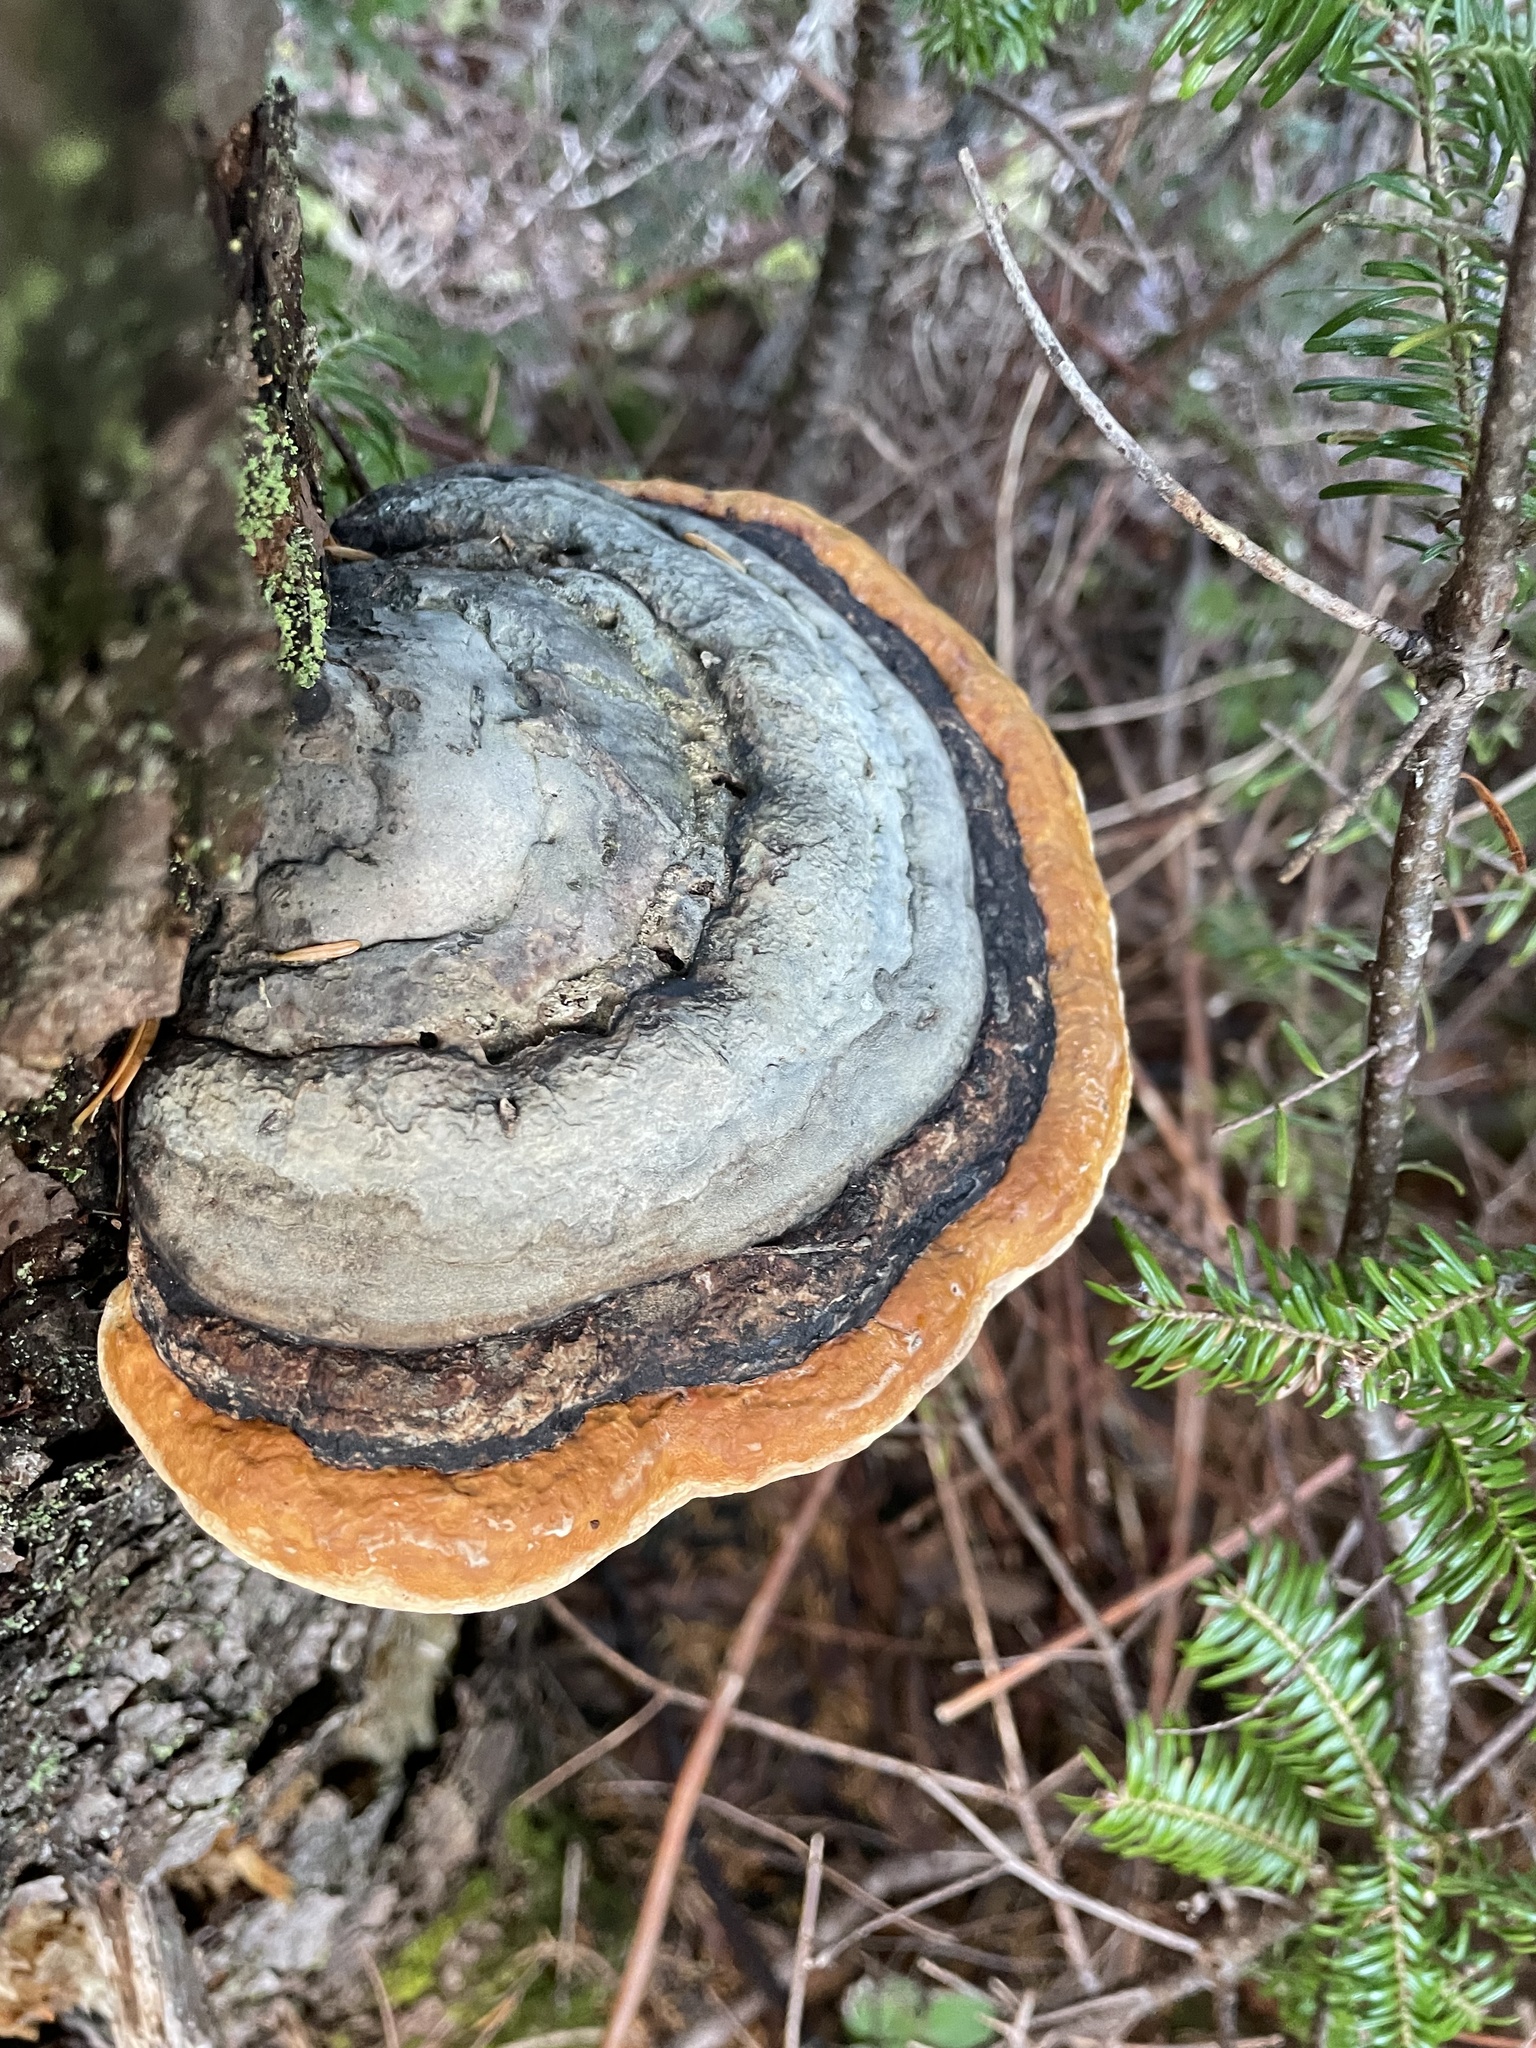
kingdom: Fungi
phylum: Basidiomycota
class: Agaricomycetes
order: Polyporales
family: Fomitopsidaceae
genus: Fomitopsis
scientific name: Fomitopsis mounceae
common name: Northern red belt
